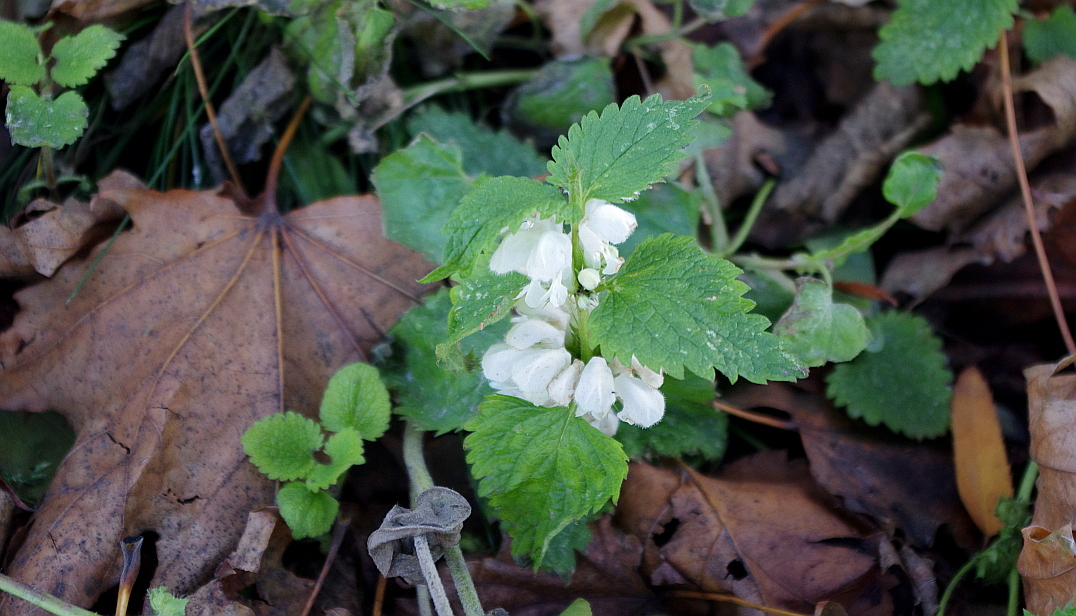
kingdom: Plantae
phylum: Tracheophyta
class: Magnoliopsida
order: Lamiales
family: Lamiaceae
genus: Lamium
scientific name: Lamium album
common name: White dead-nettle
